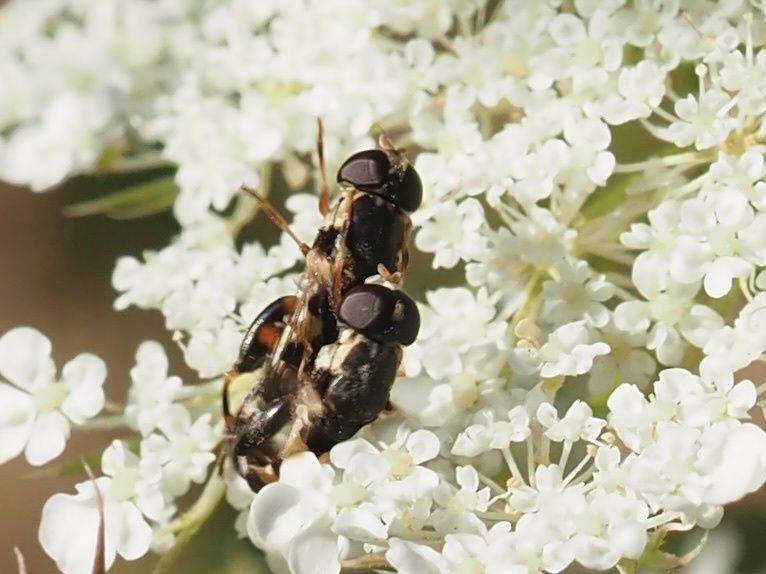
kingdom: Animalia
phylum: Arthropoda
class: Insecta
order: Diptera
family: Syrphidae
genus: Syritta
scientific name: Syritta pipiens
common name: Hover fly
